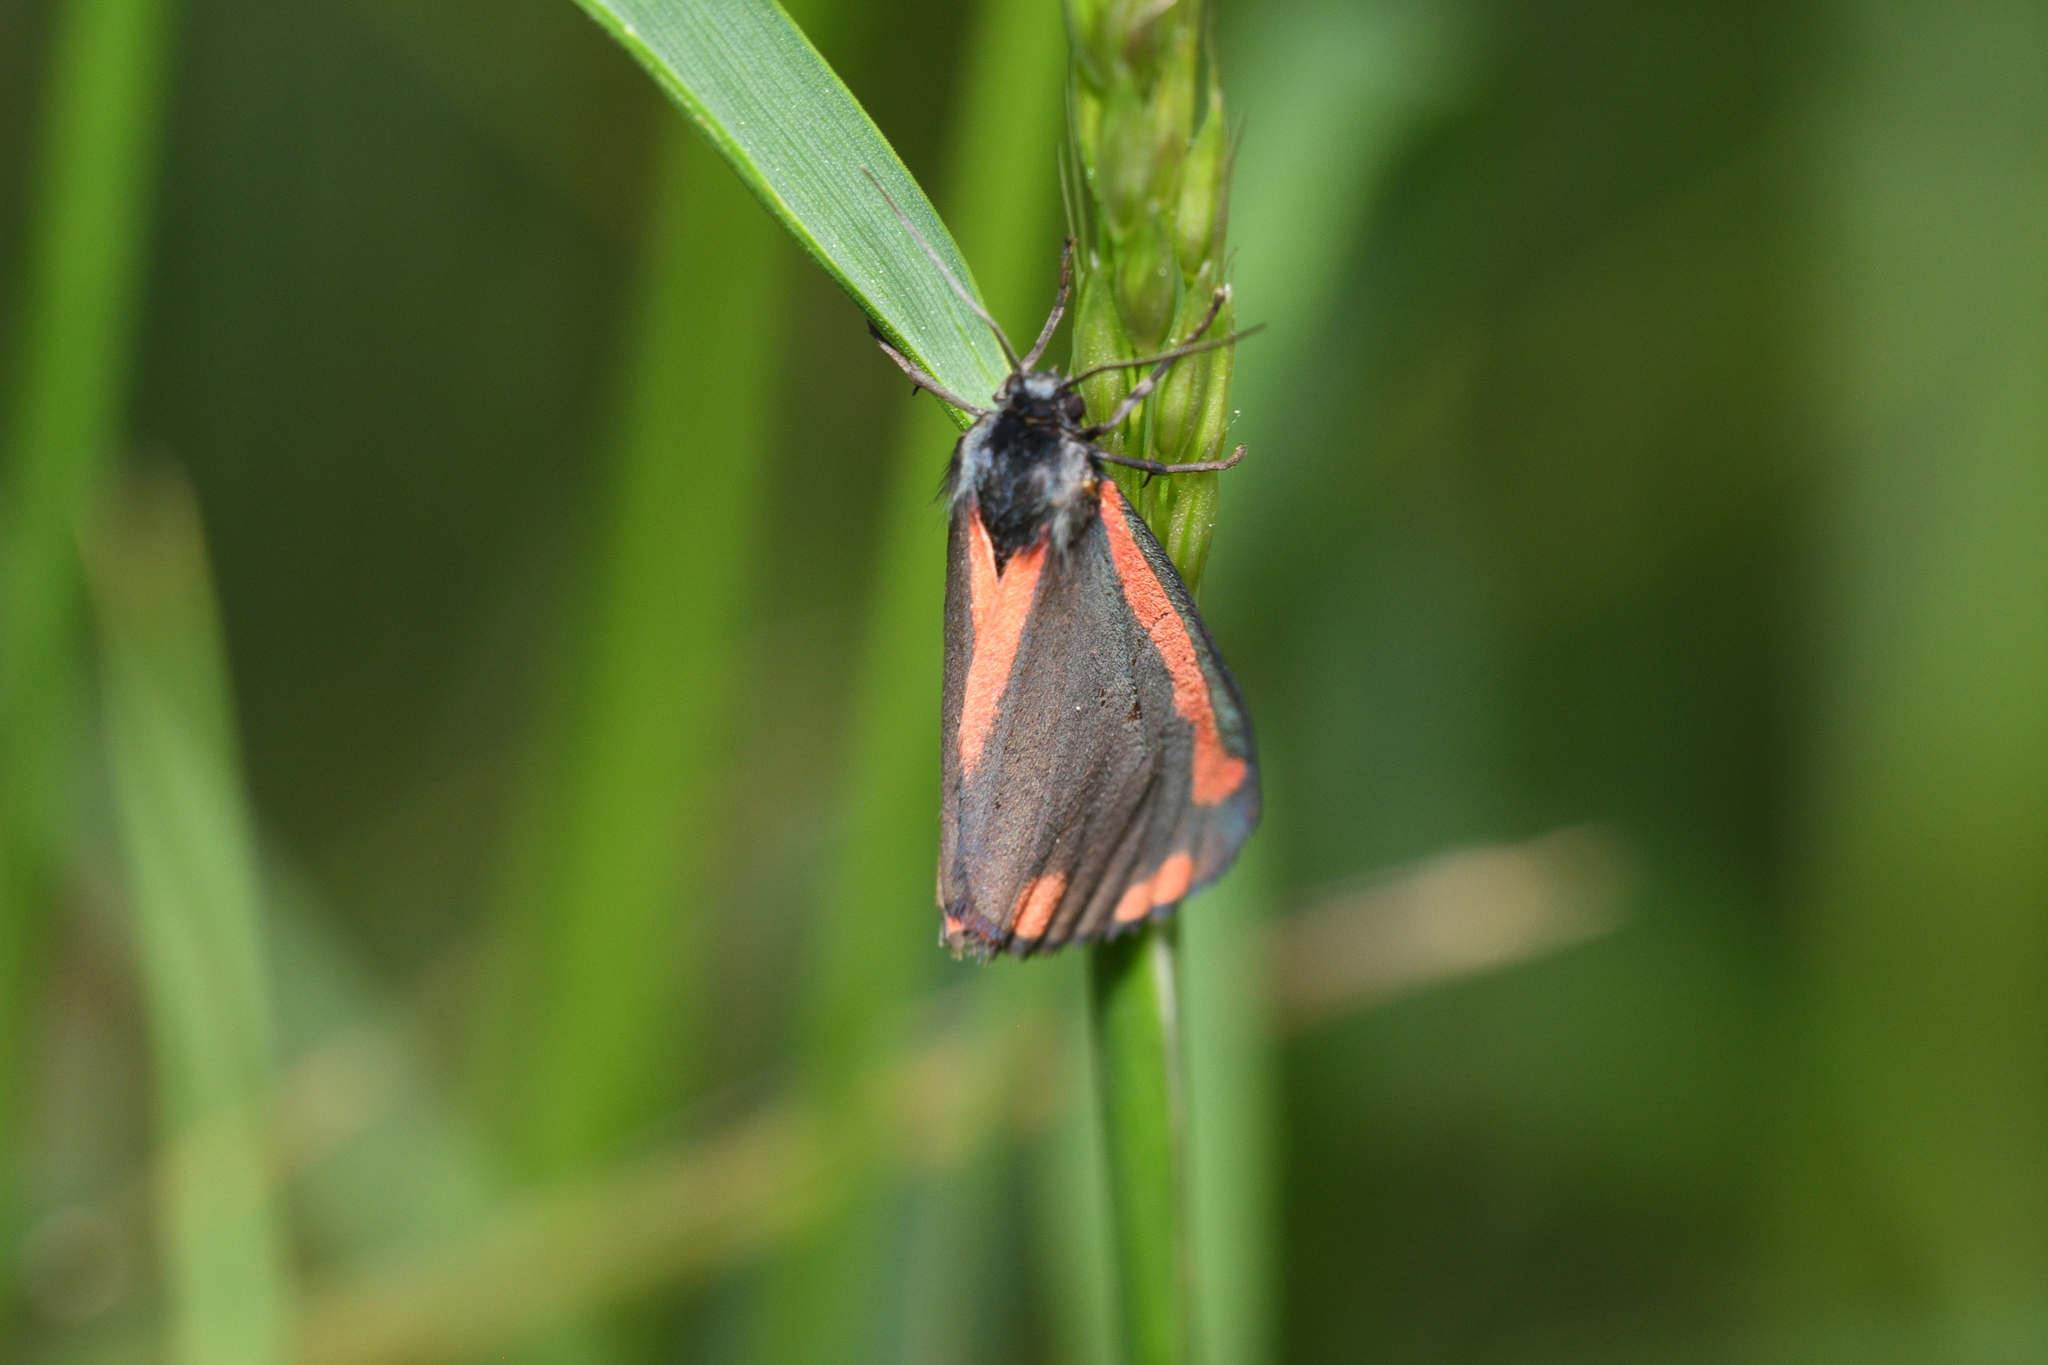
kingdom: Animalia
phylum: Arthropoda
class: Insecta
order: Lepidoptera
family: Erebidae
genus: Tyria
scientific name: Tyria jacobaeae
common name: Cinnabar
